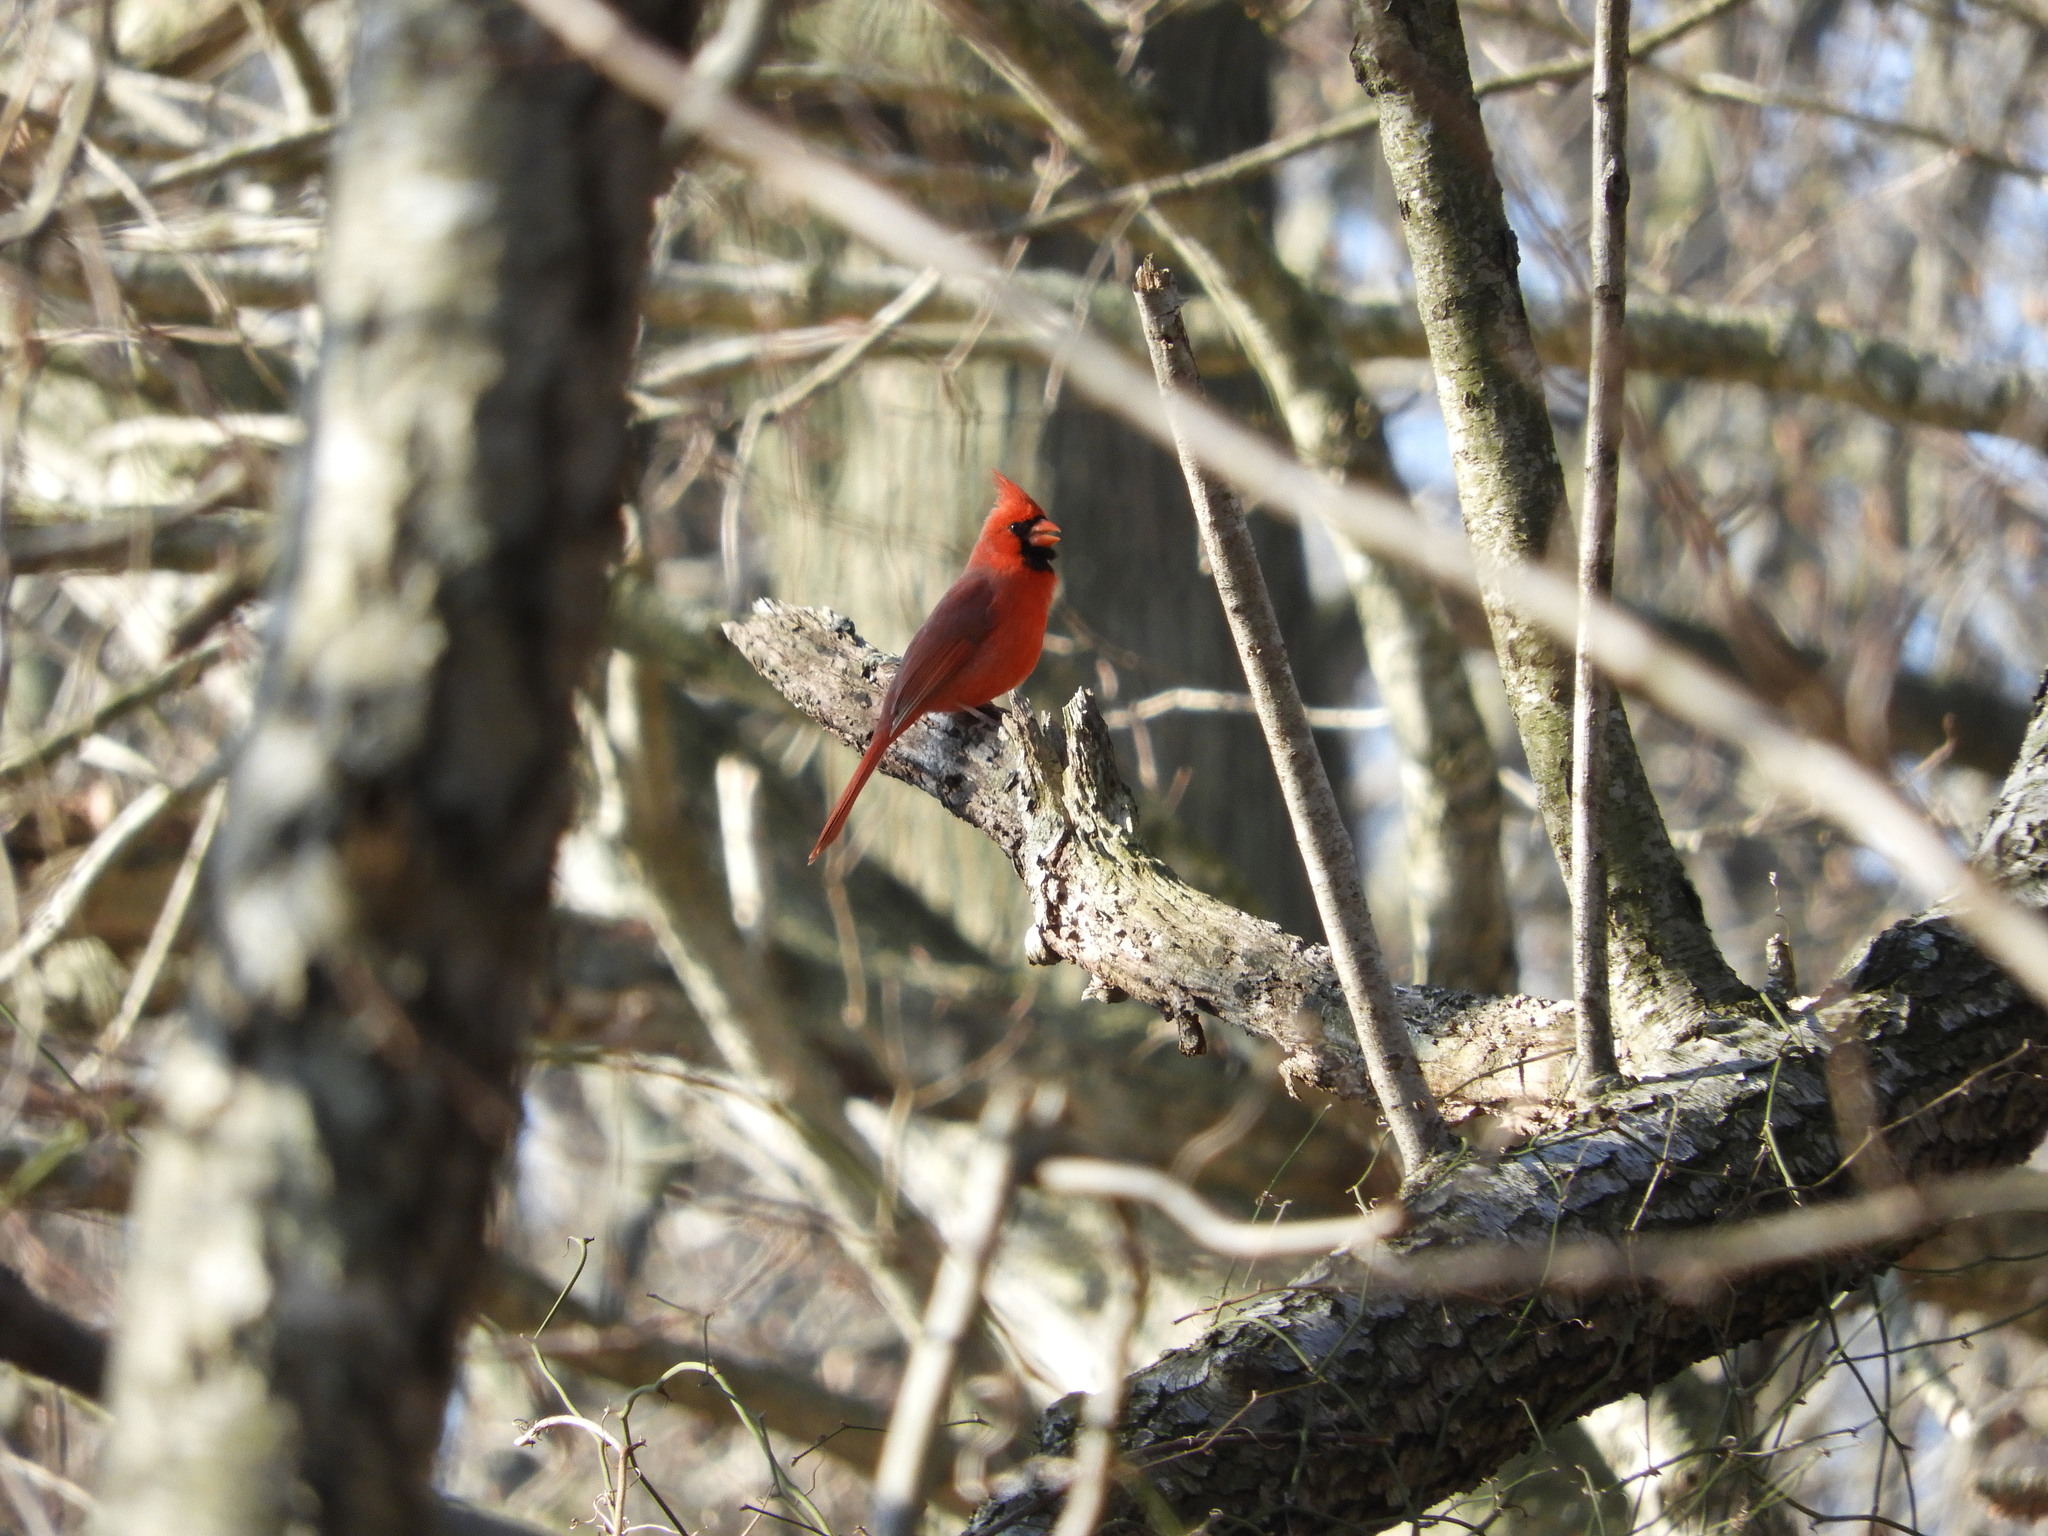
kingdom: Animalia
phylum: Chordata
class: Aves
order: Passeriformes
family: Cardinalidae
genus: Cardinalis
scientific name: Cardinalis cardinalis
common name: Northern cardinal
